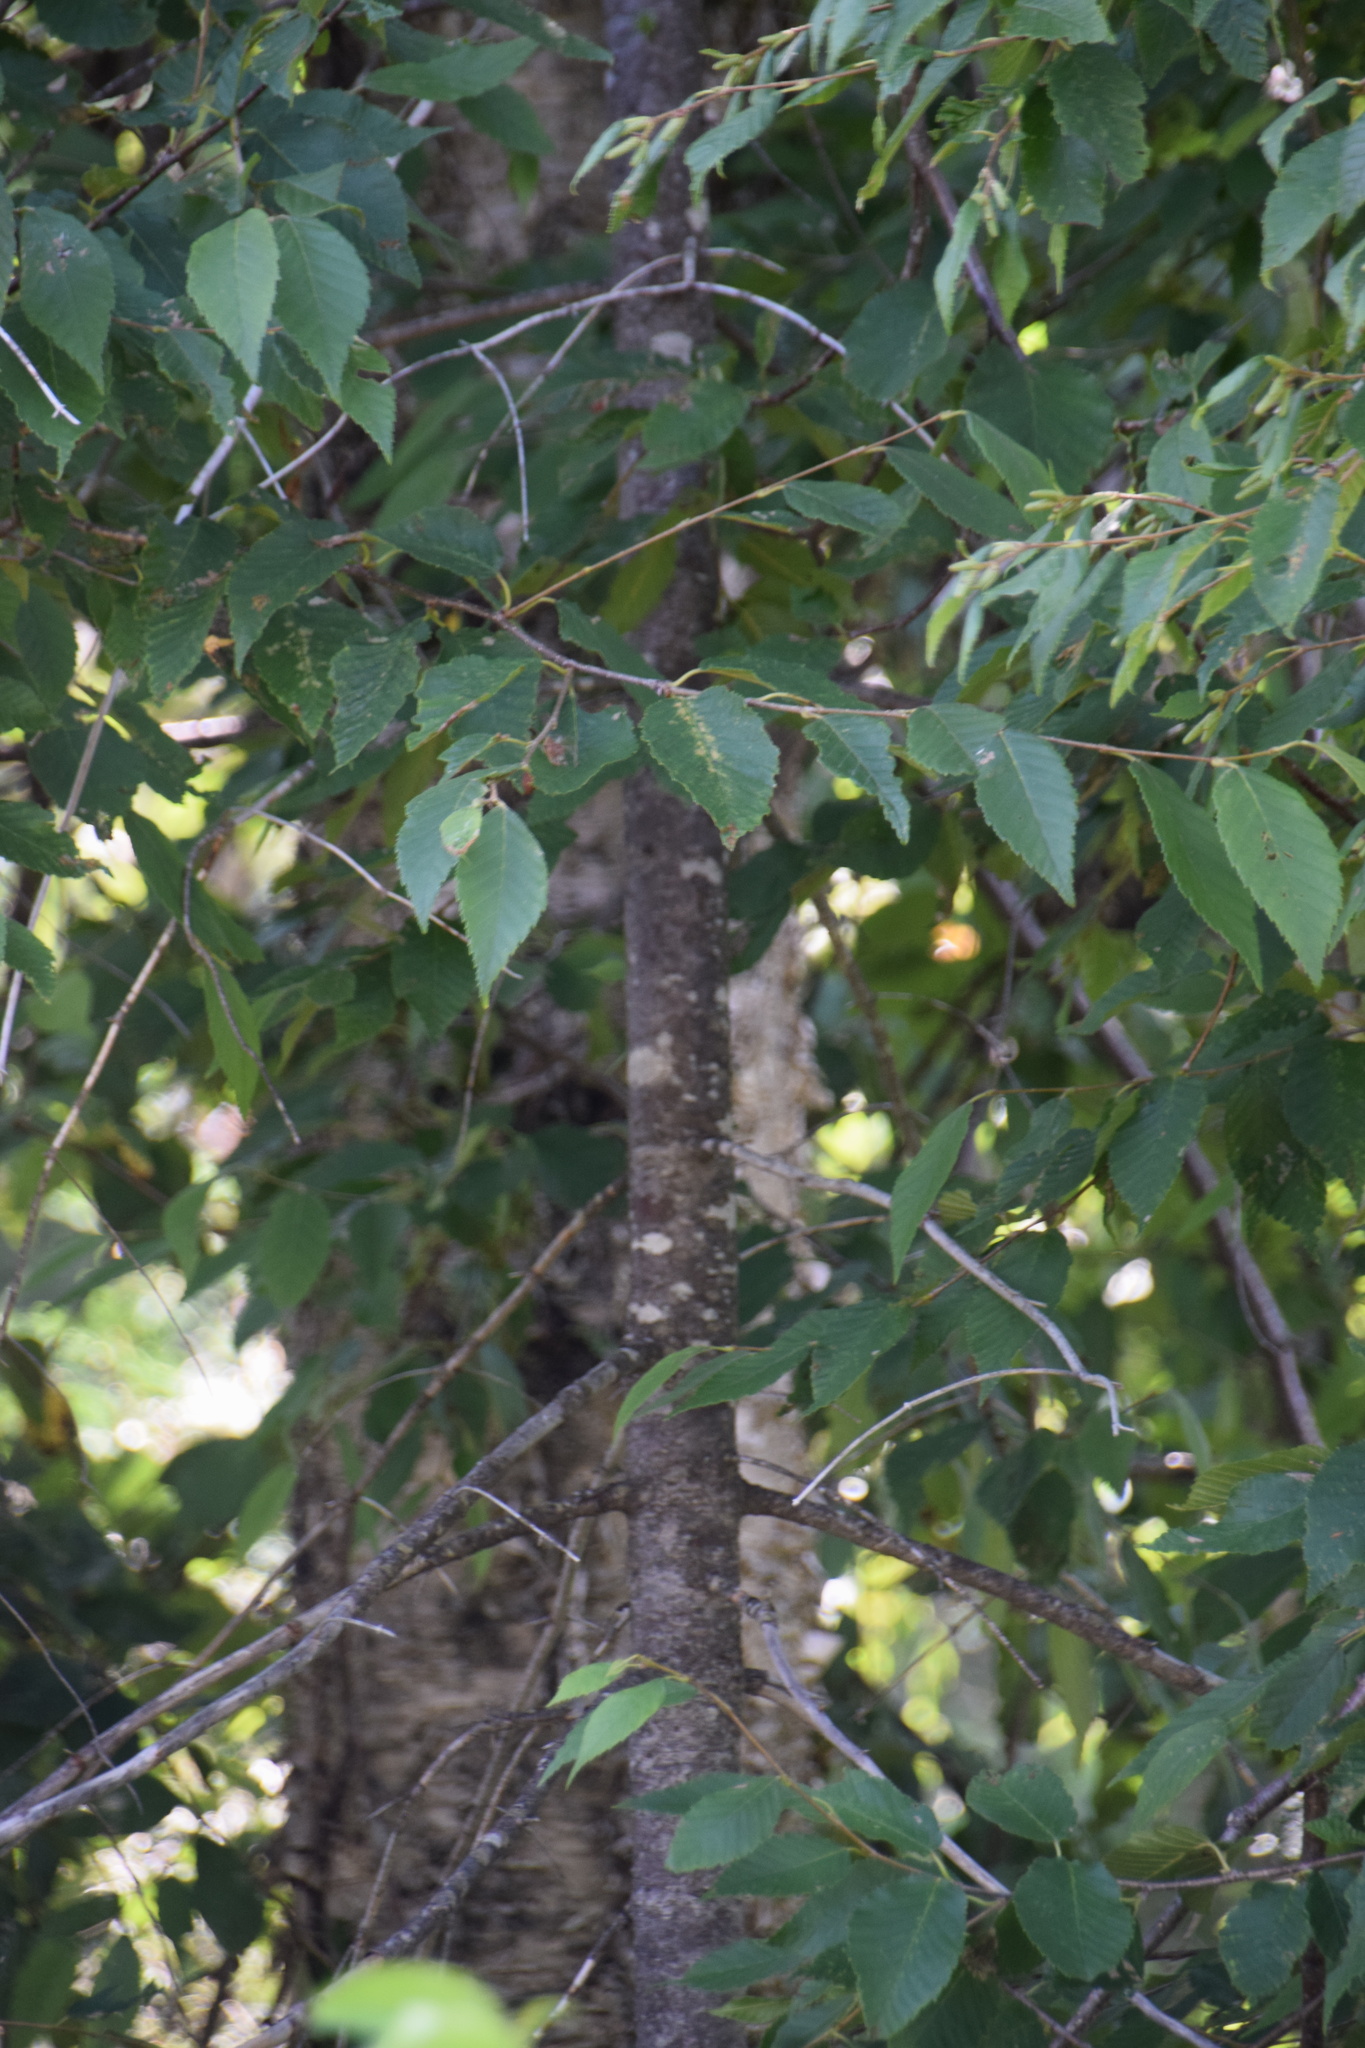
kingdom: Plantae
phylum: Tracheophyta
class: Magnoliopsida
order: Fagales
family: Betulaceae
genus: Betula
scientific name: Betula alleghaniensis
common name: Yellow birch
